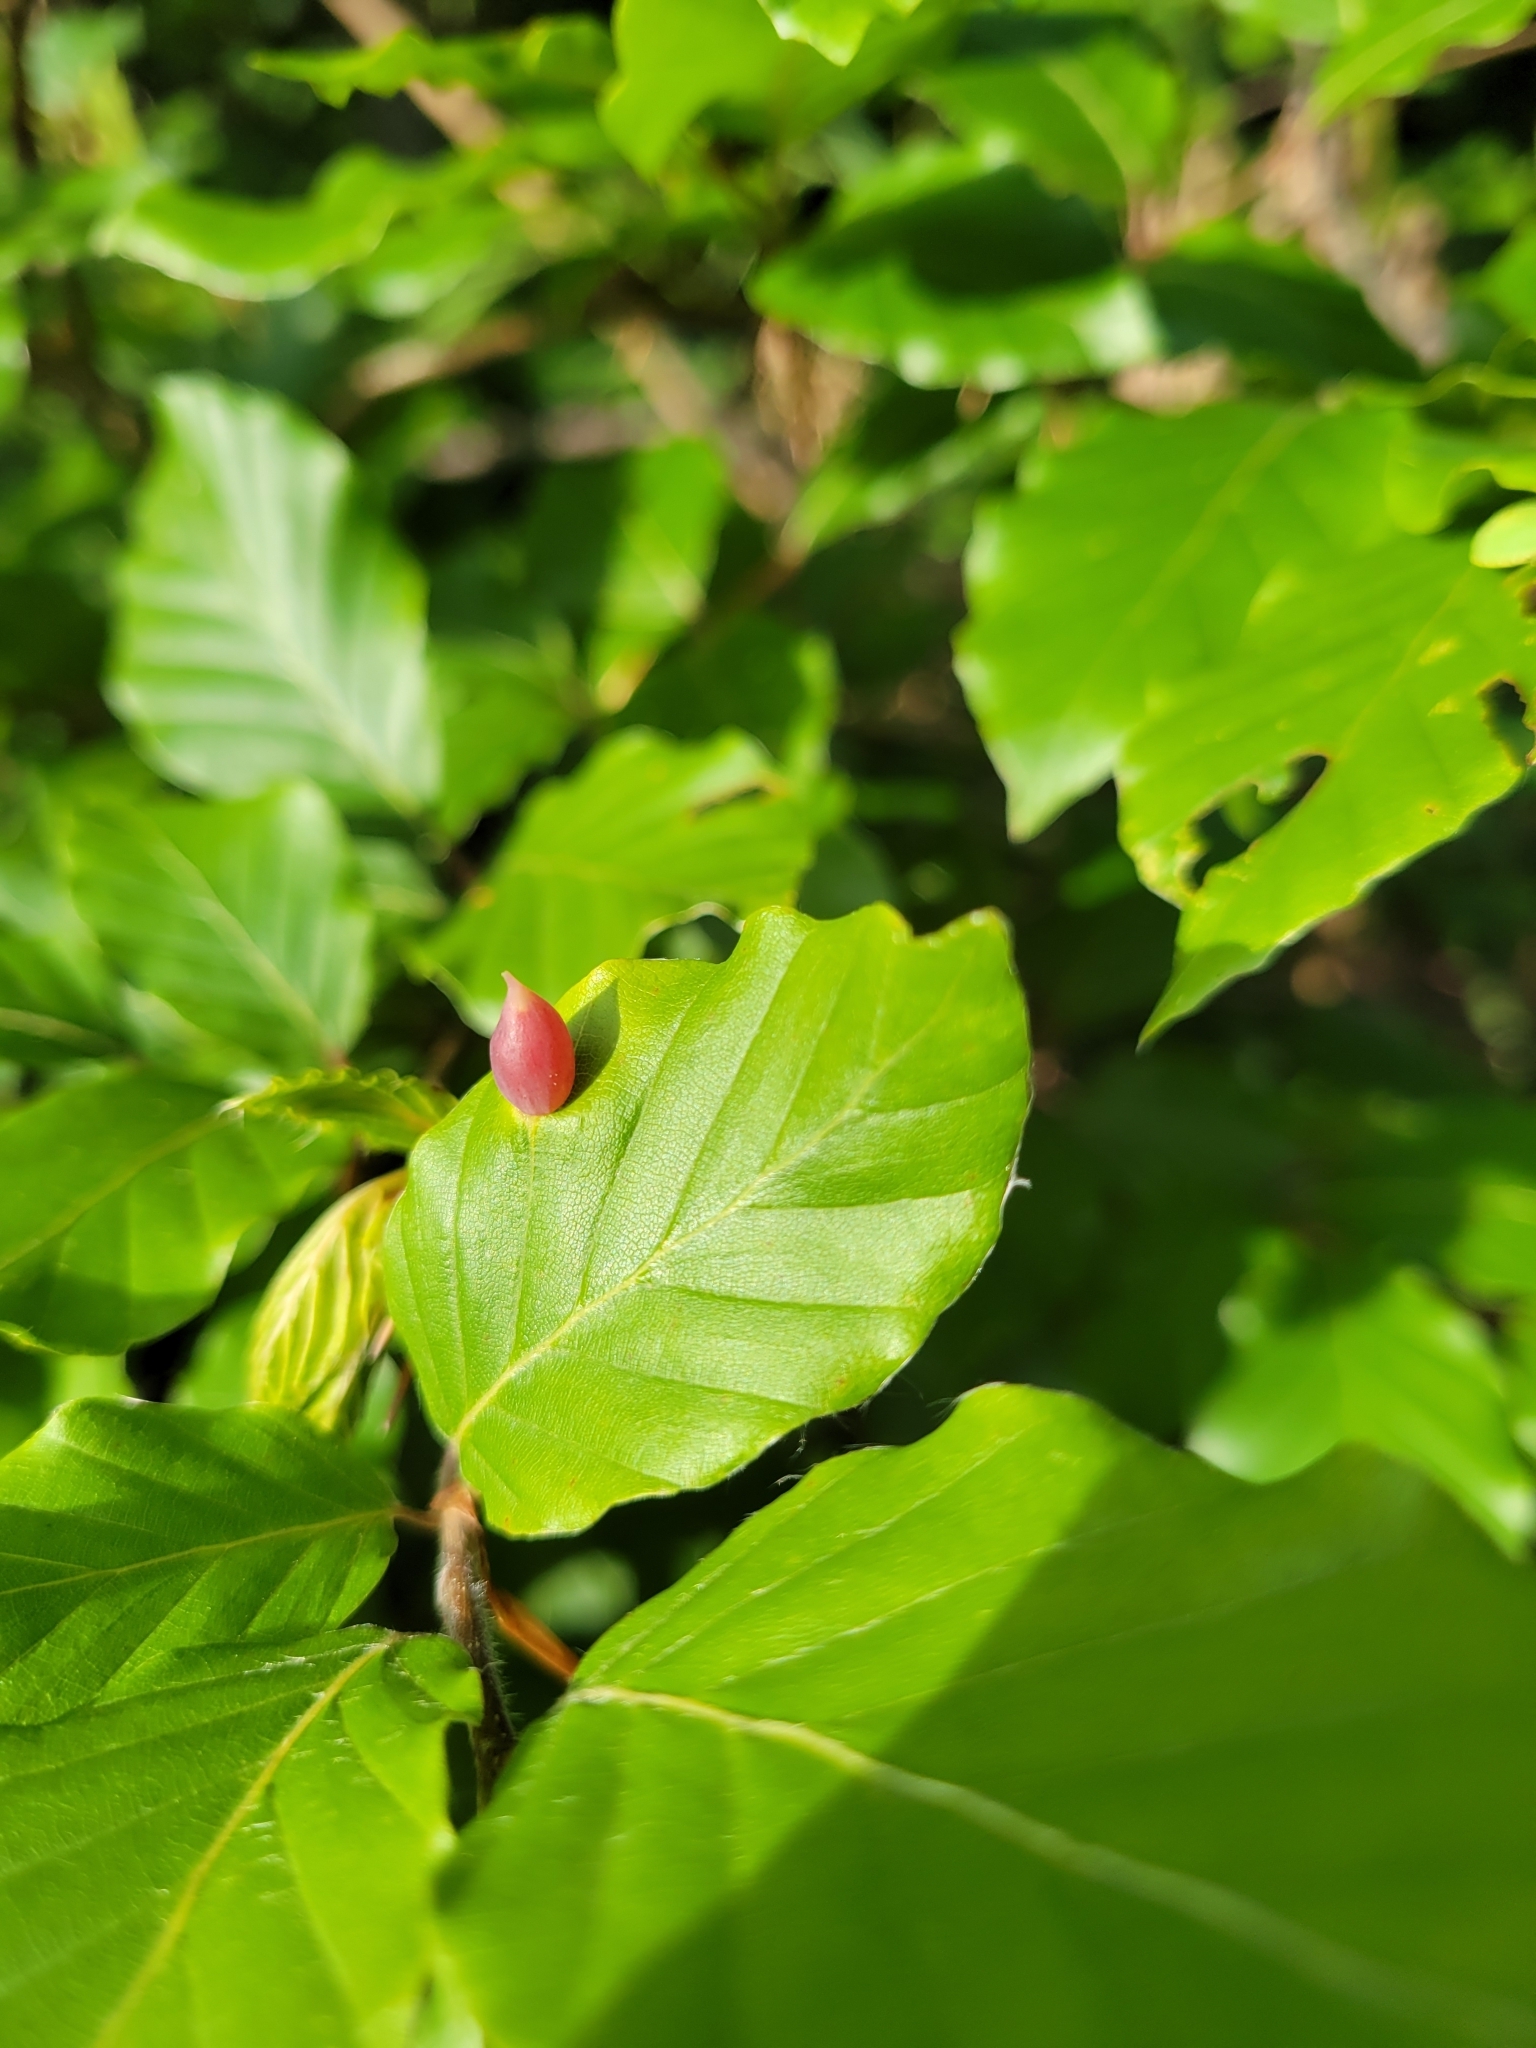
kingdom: Animalia
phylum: Arthropoda
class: Insecta
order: Diptera
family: Cecidomyiidae
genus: Mikiola
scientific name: Mikiola fagi
